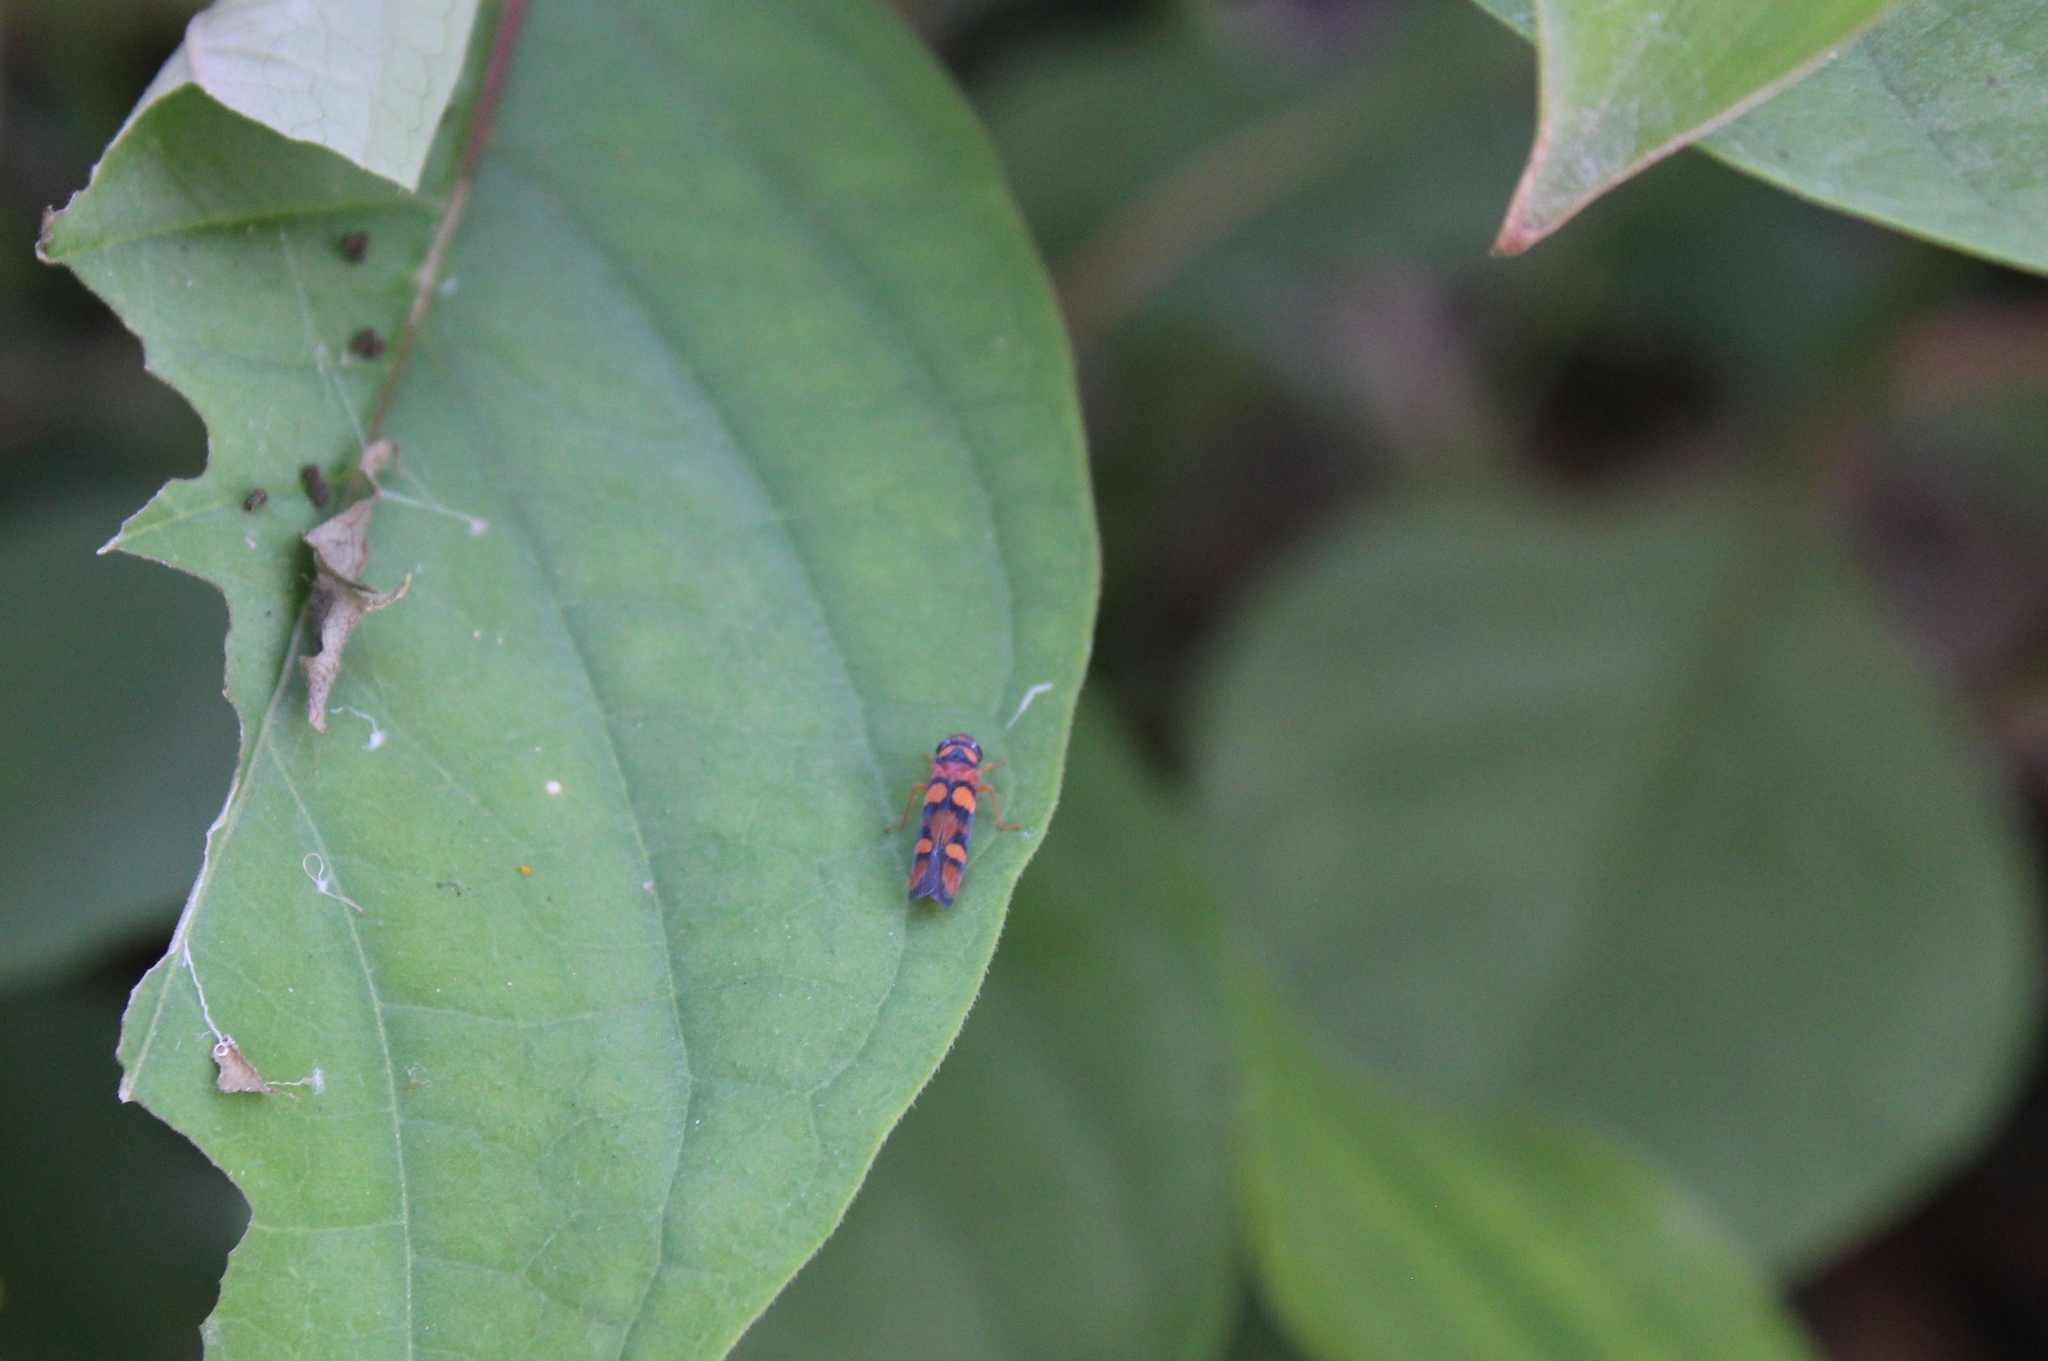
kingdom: Animalia
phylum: Arthropoda
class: Insecta
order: Hemiptera
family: Cicadellidae
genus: Pawiloma
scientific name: Pawiloma jucunda
